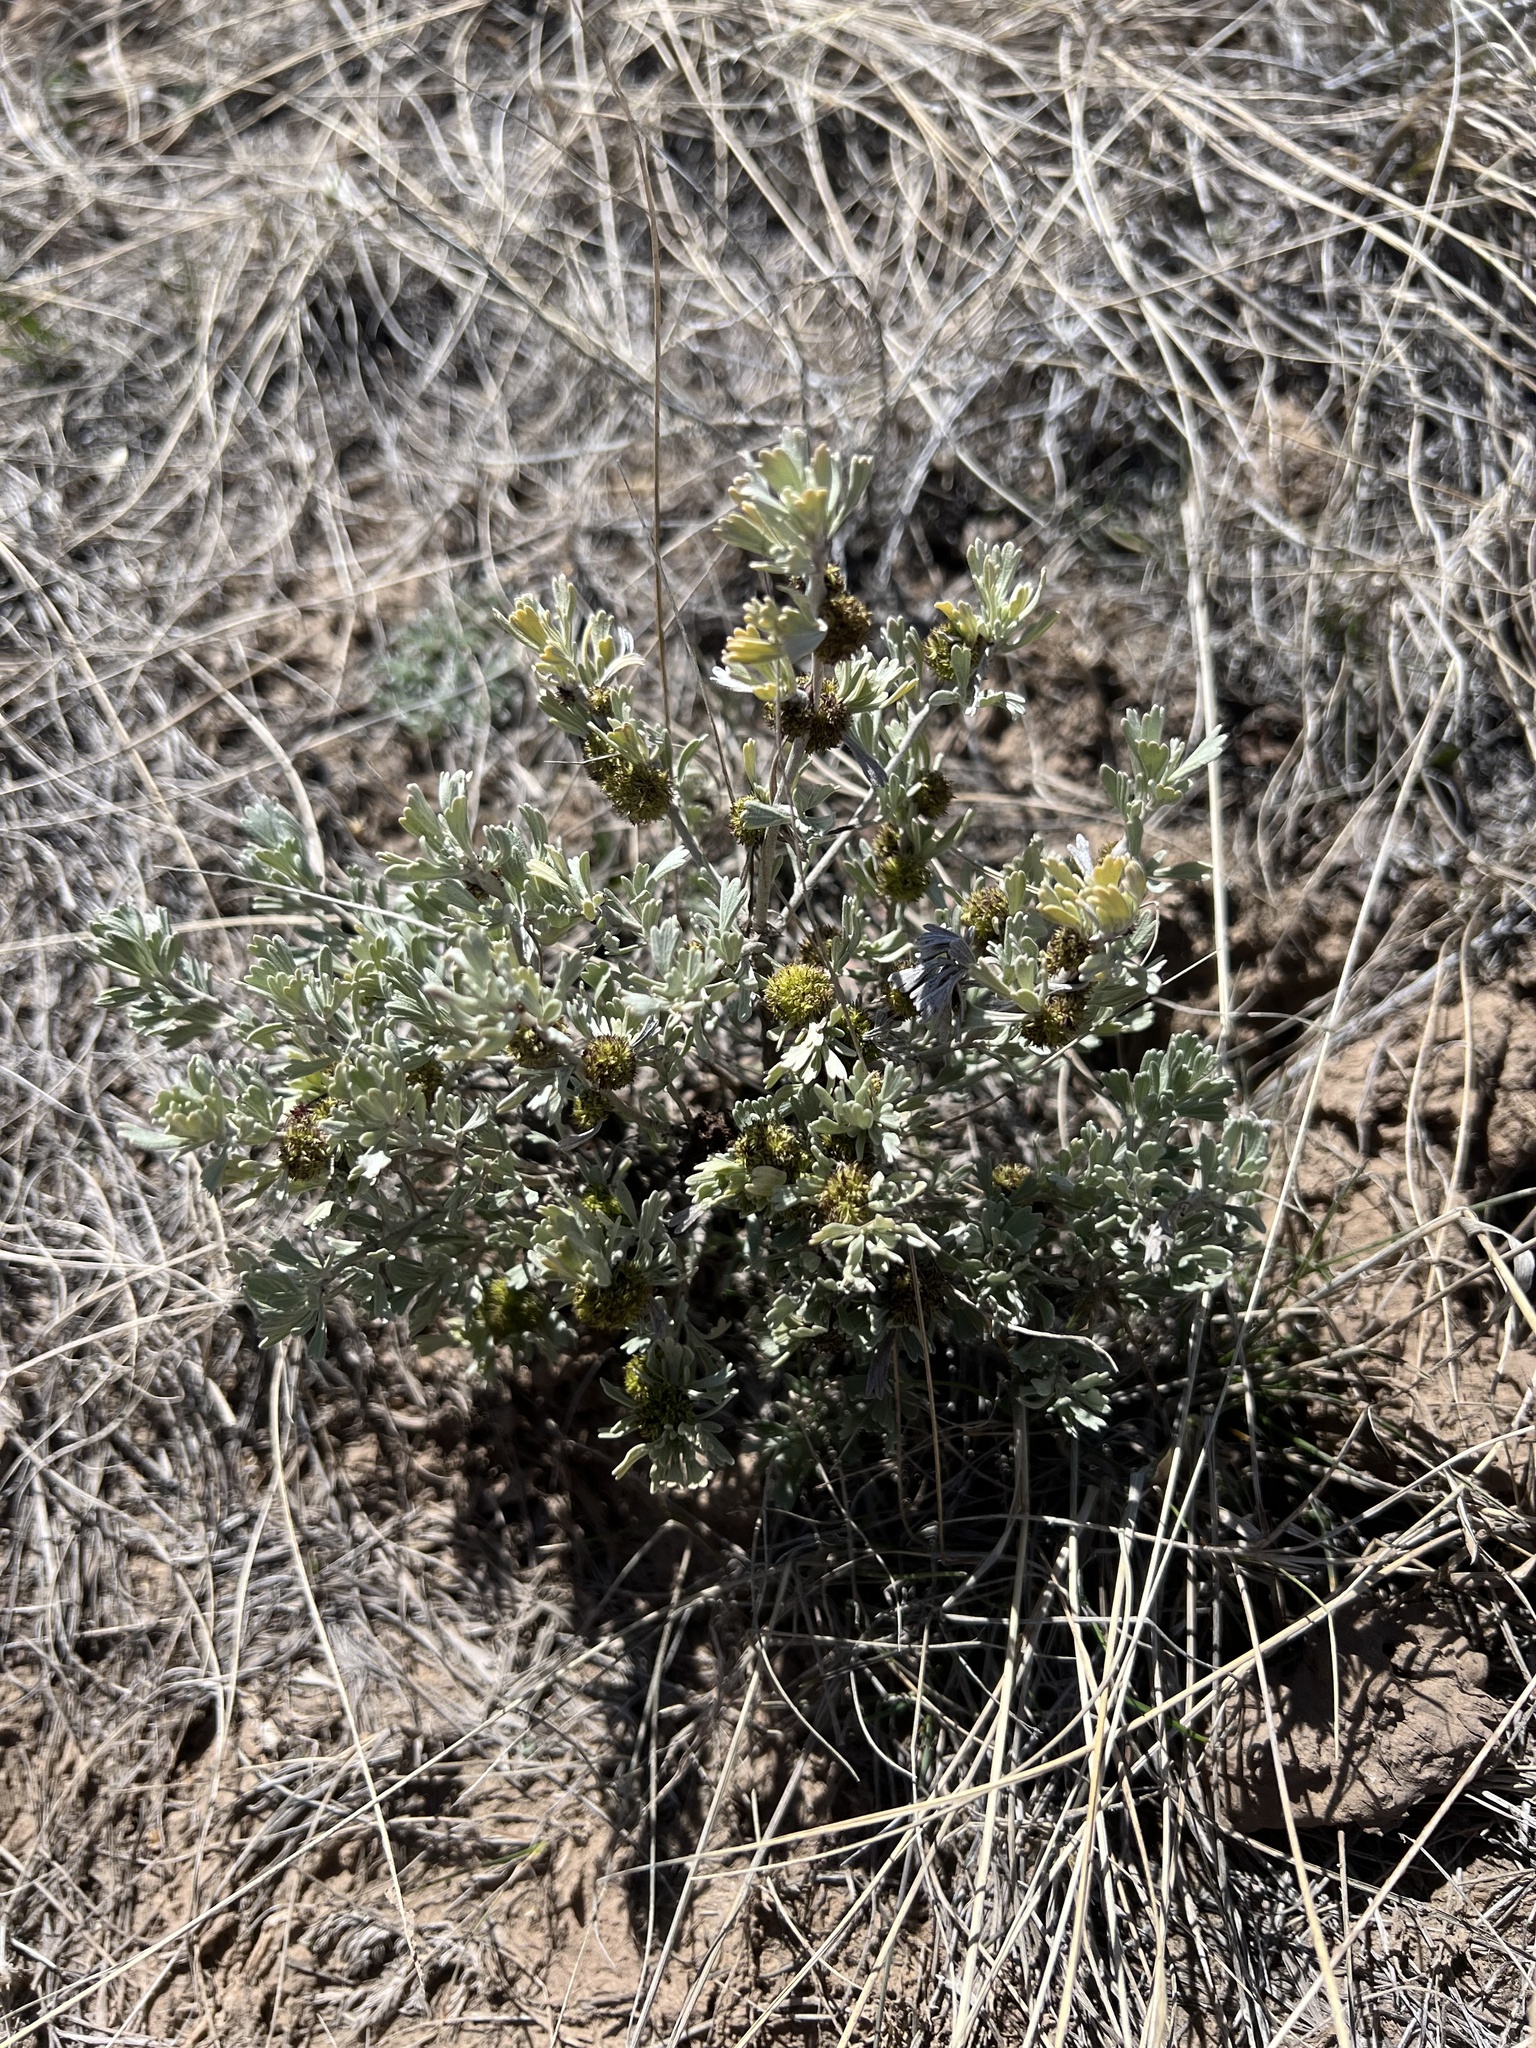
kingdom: Animalia
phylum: Arthropoda
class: Insecta
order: Diptera
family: Cecidomyiidae
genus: Rhopalomyia
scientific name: Rhopalomyia medusa
